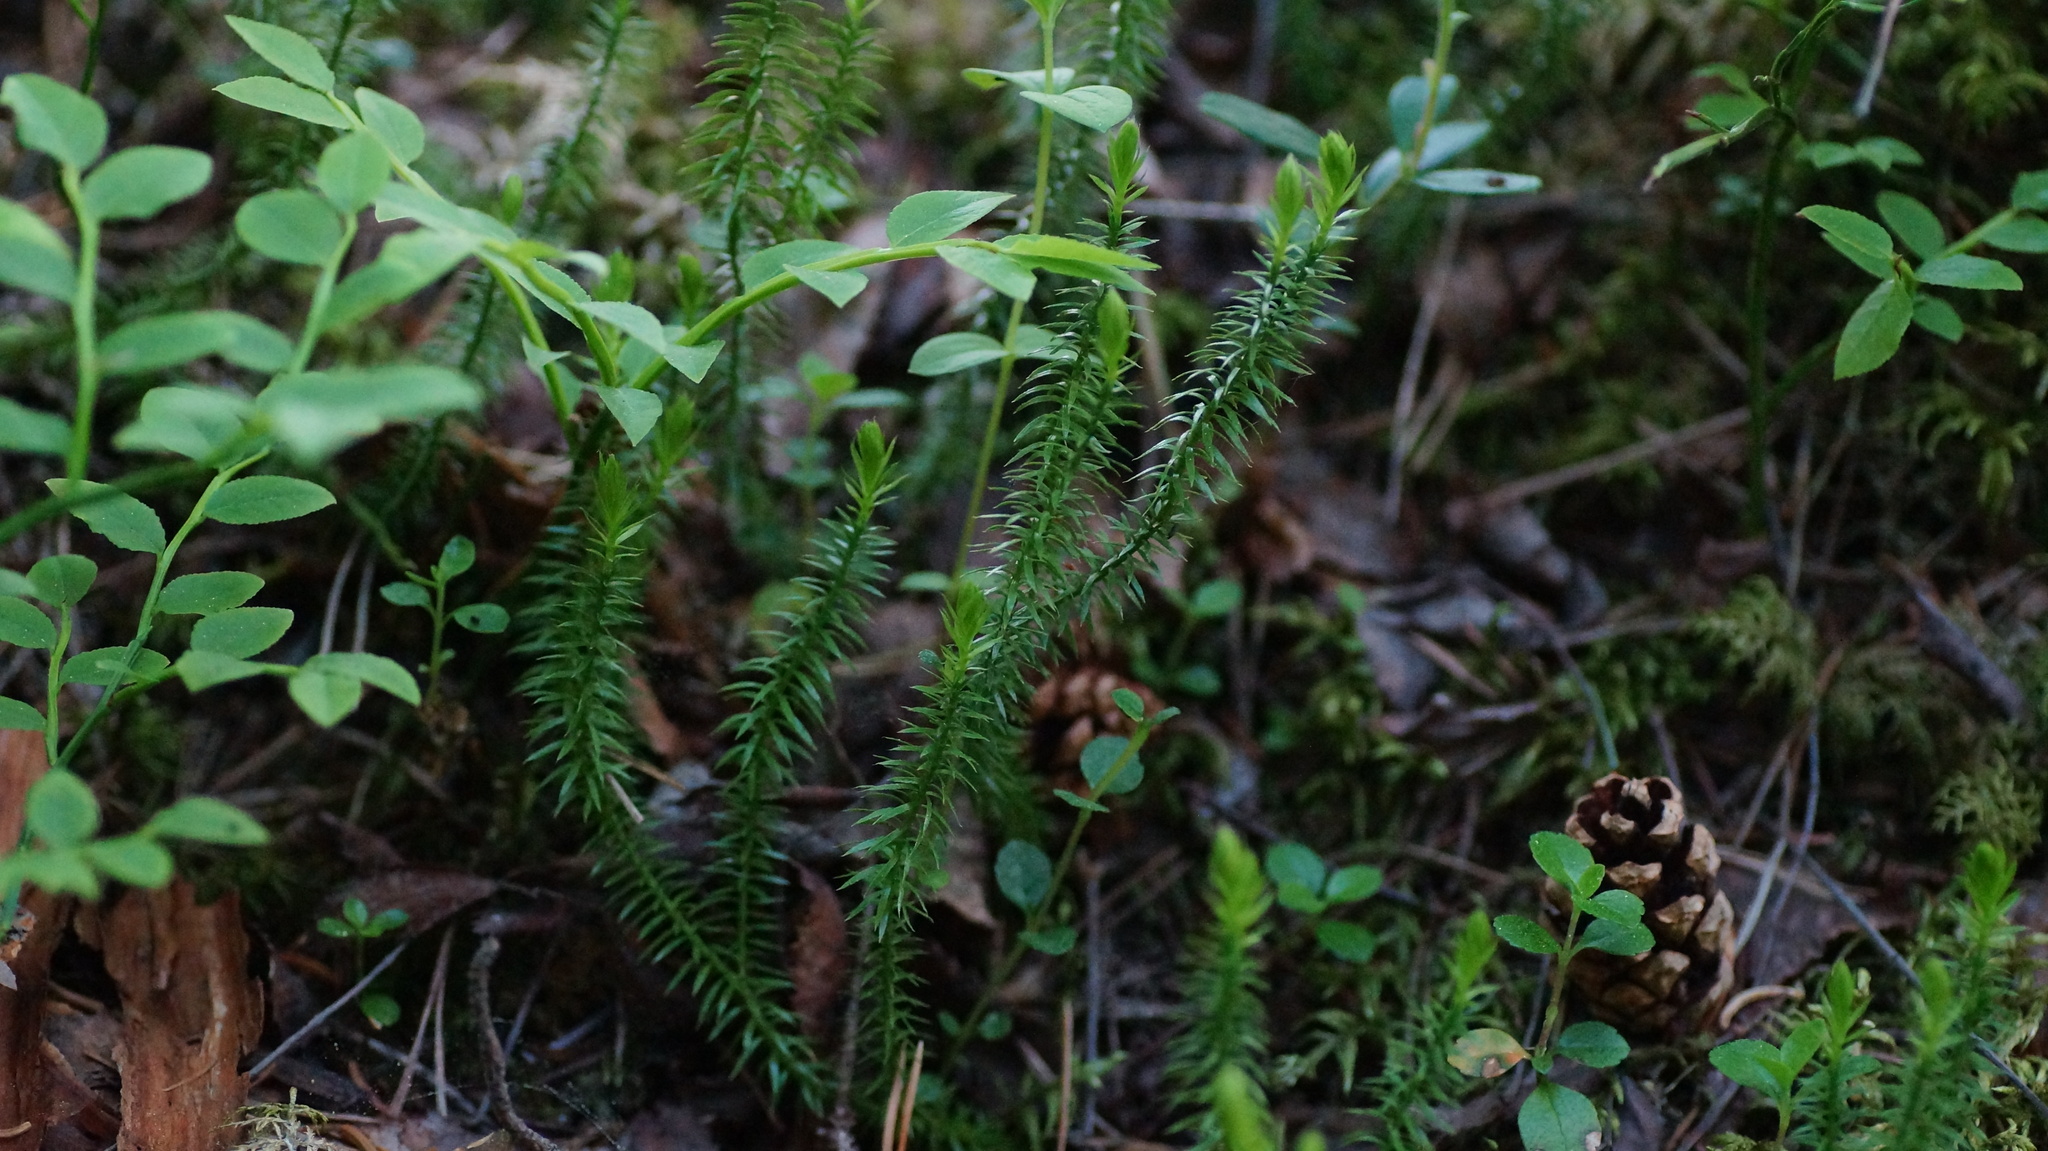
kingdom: Plantae
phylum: Tracheophyta
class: Lycopodiopsida
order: Lycopodiales
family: Lycopodiaceae
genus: Spinulum
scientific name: Spinulum annotinum
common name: Interrupted club-moss
